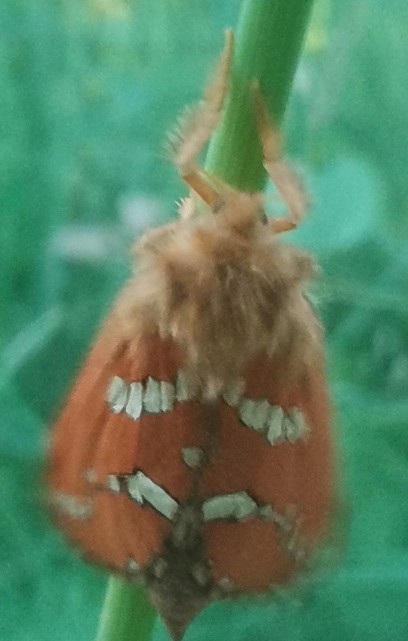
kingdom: Animalia
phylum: Arthropoda
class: Insecta
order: Lepidoptera
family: Hepialidae
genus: Phymatopus
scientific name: Phymatopus hecta
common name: Gold swift
